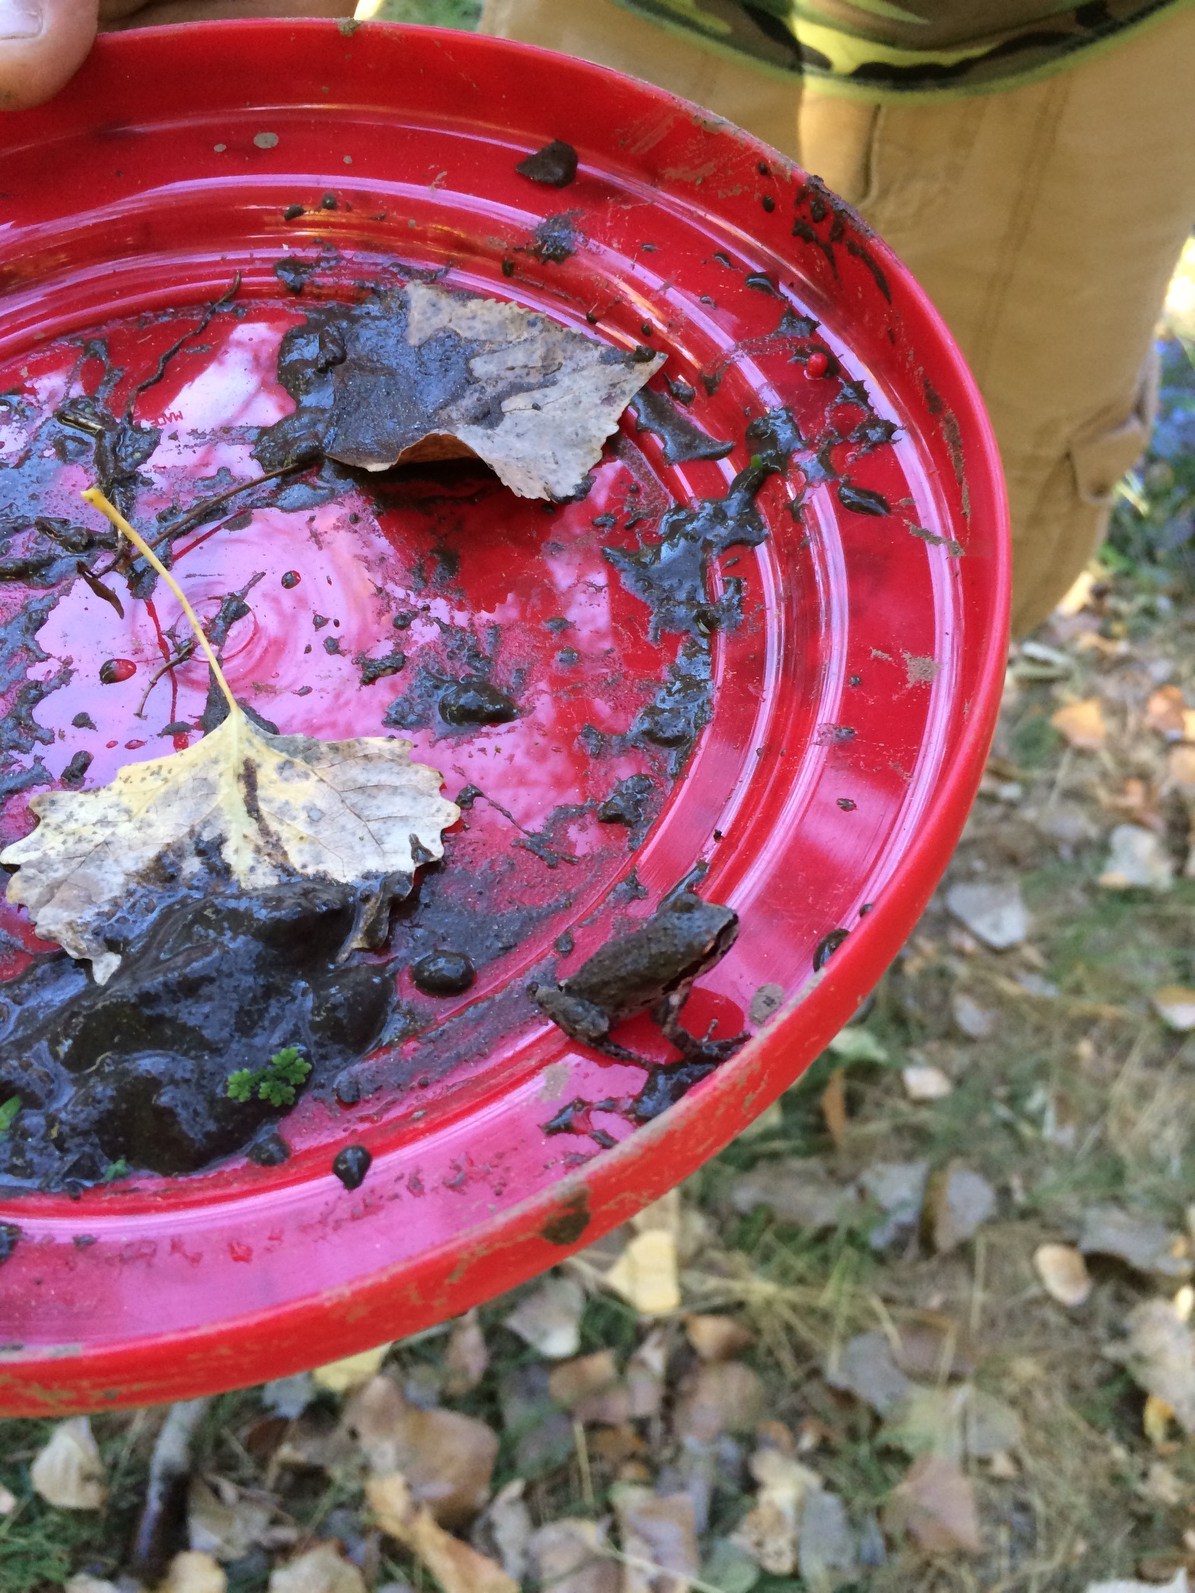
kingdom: Animalia
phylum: Chordata
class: Amphibia
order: Anura
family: Hylidae
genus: Pseudacris
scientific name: Pseudacris regilla
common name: Pacific chorus frog
